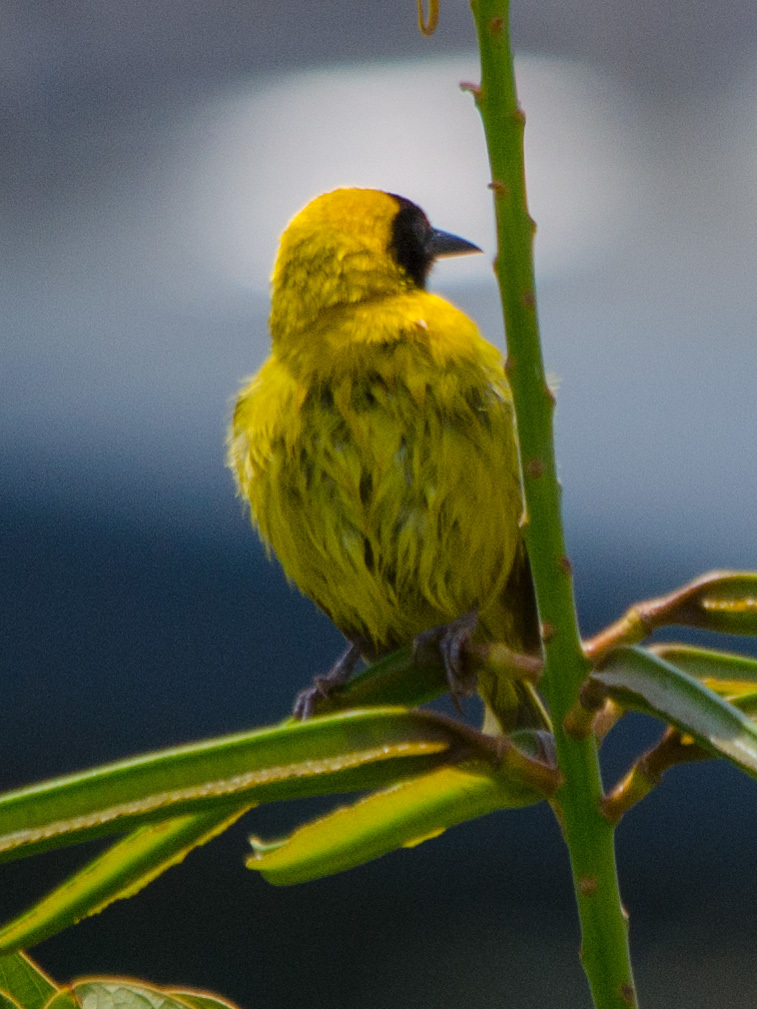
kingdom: Animalia
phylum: Chordata
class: Aves
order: Passeriformes
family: Ploceidae
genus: Ploceus
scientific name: Ploceus pelzelni
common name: Slender-billed weaver
